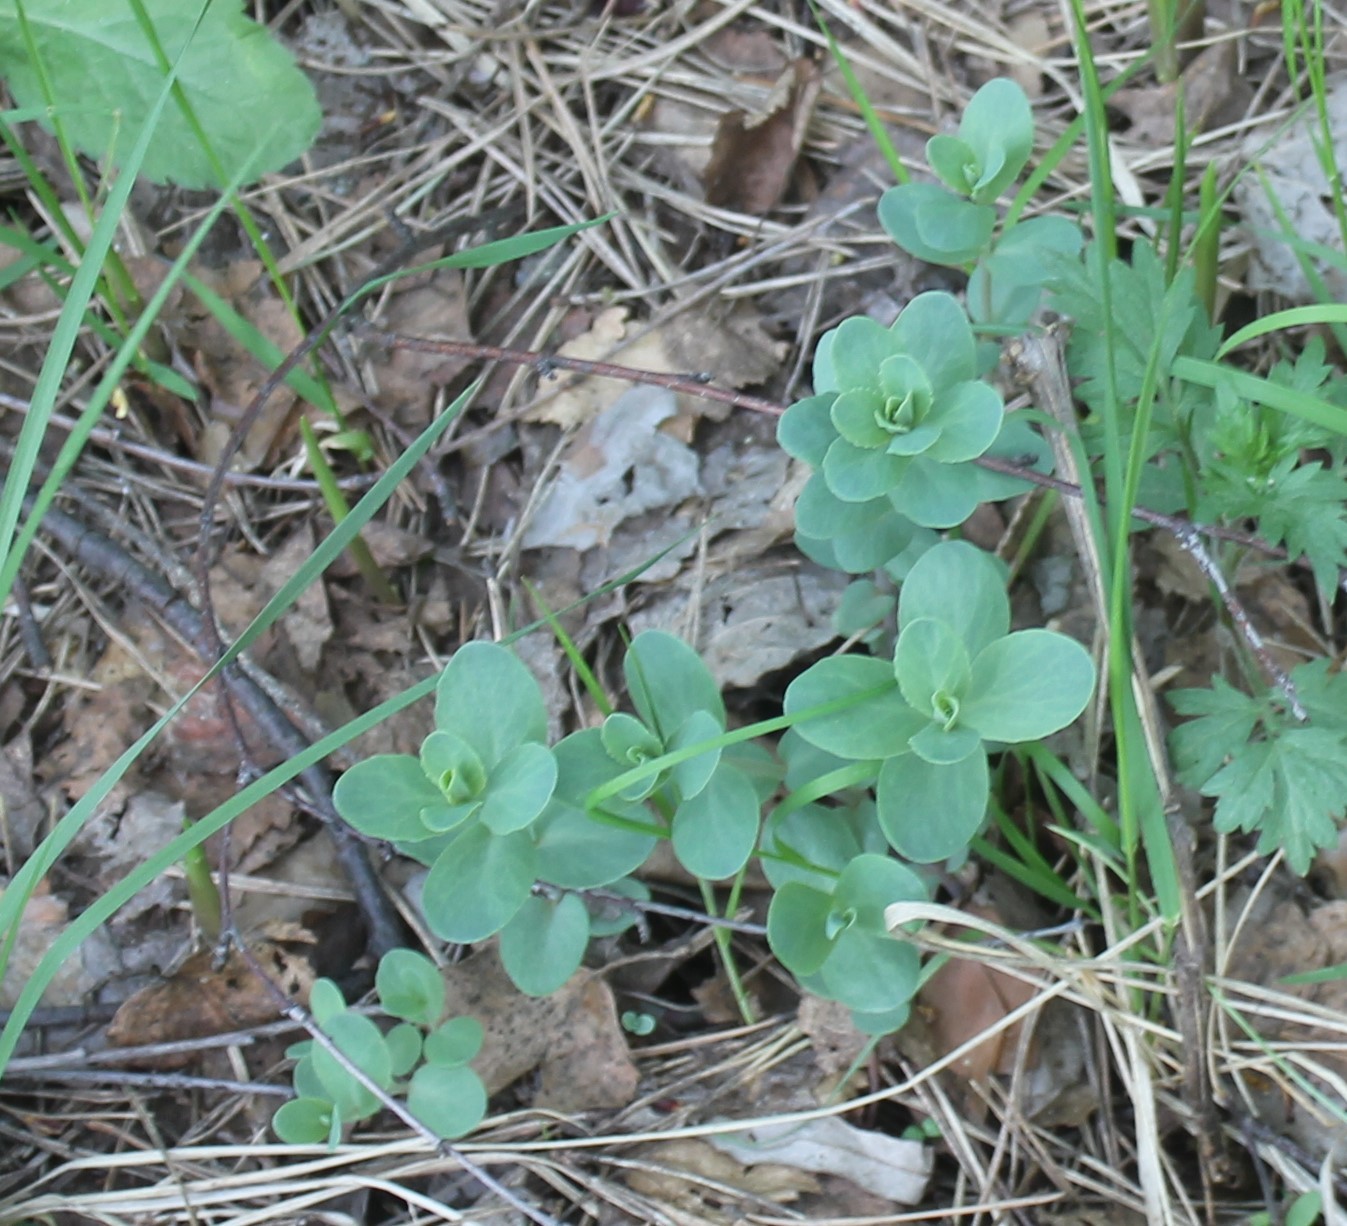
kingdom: Plantae
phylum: Tracheophyta
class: Magnoliopsida
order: Saxifragales
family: Crassulaceae
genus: Hylotelephium
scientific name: Hylotelephium maximum
